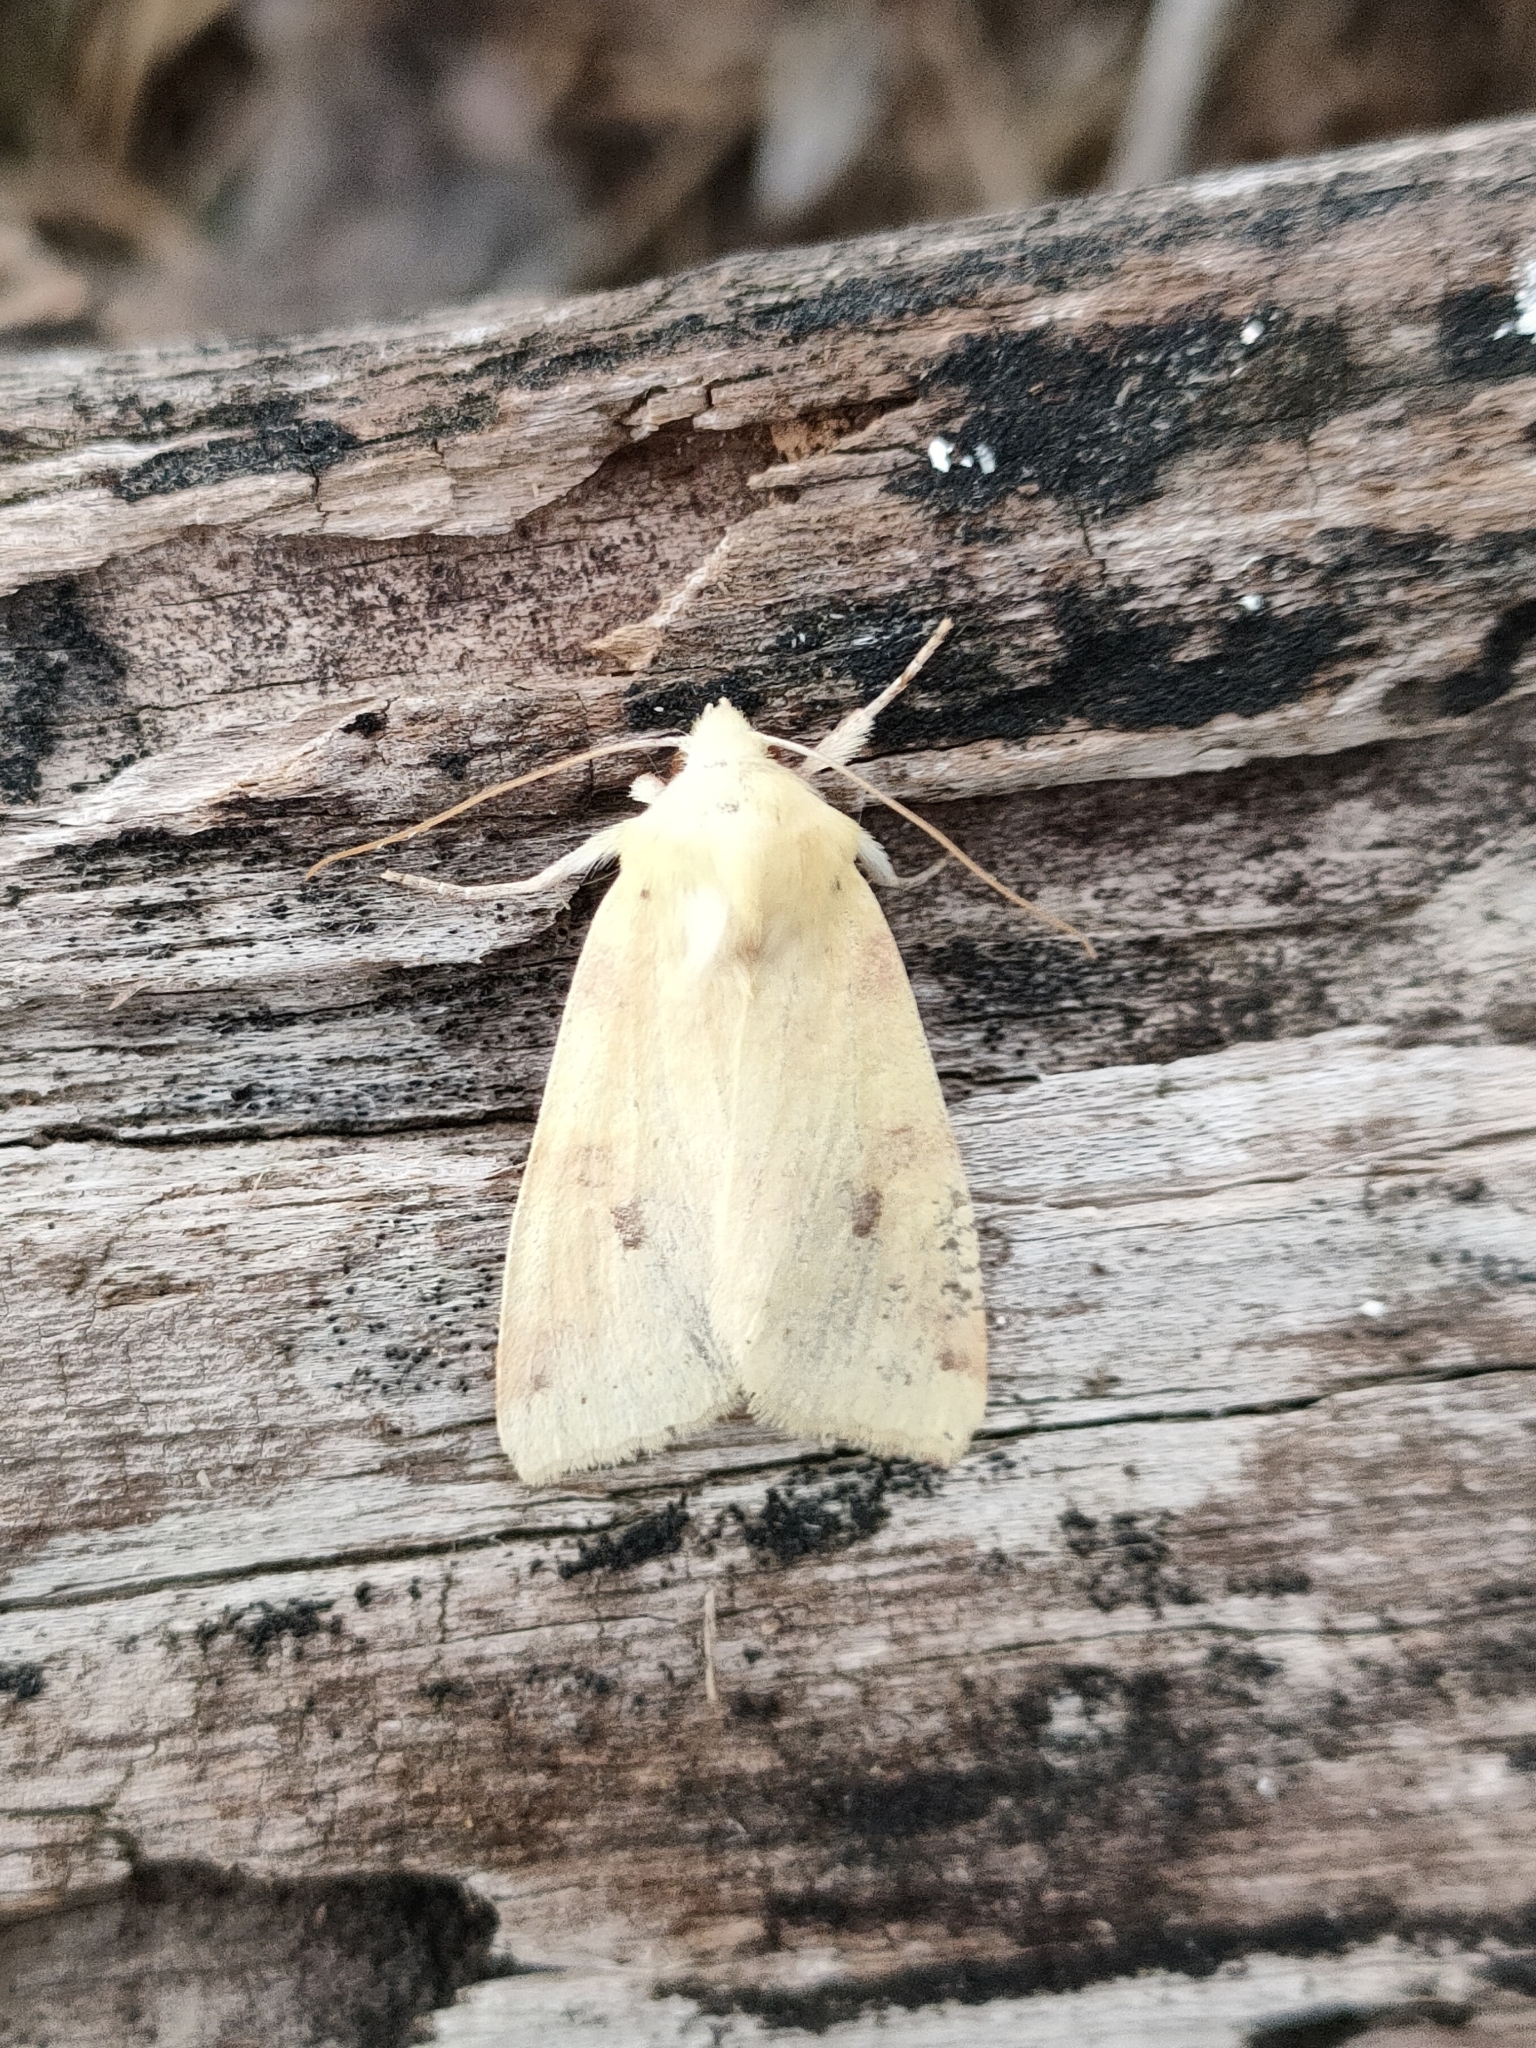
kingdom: Animalia
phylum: Arthropoda
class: Insecta
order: Lepidoptera
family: Noctuidae
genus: Xanthia
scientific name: Xanthia icteritia
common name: The sallow
